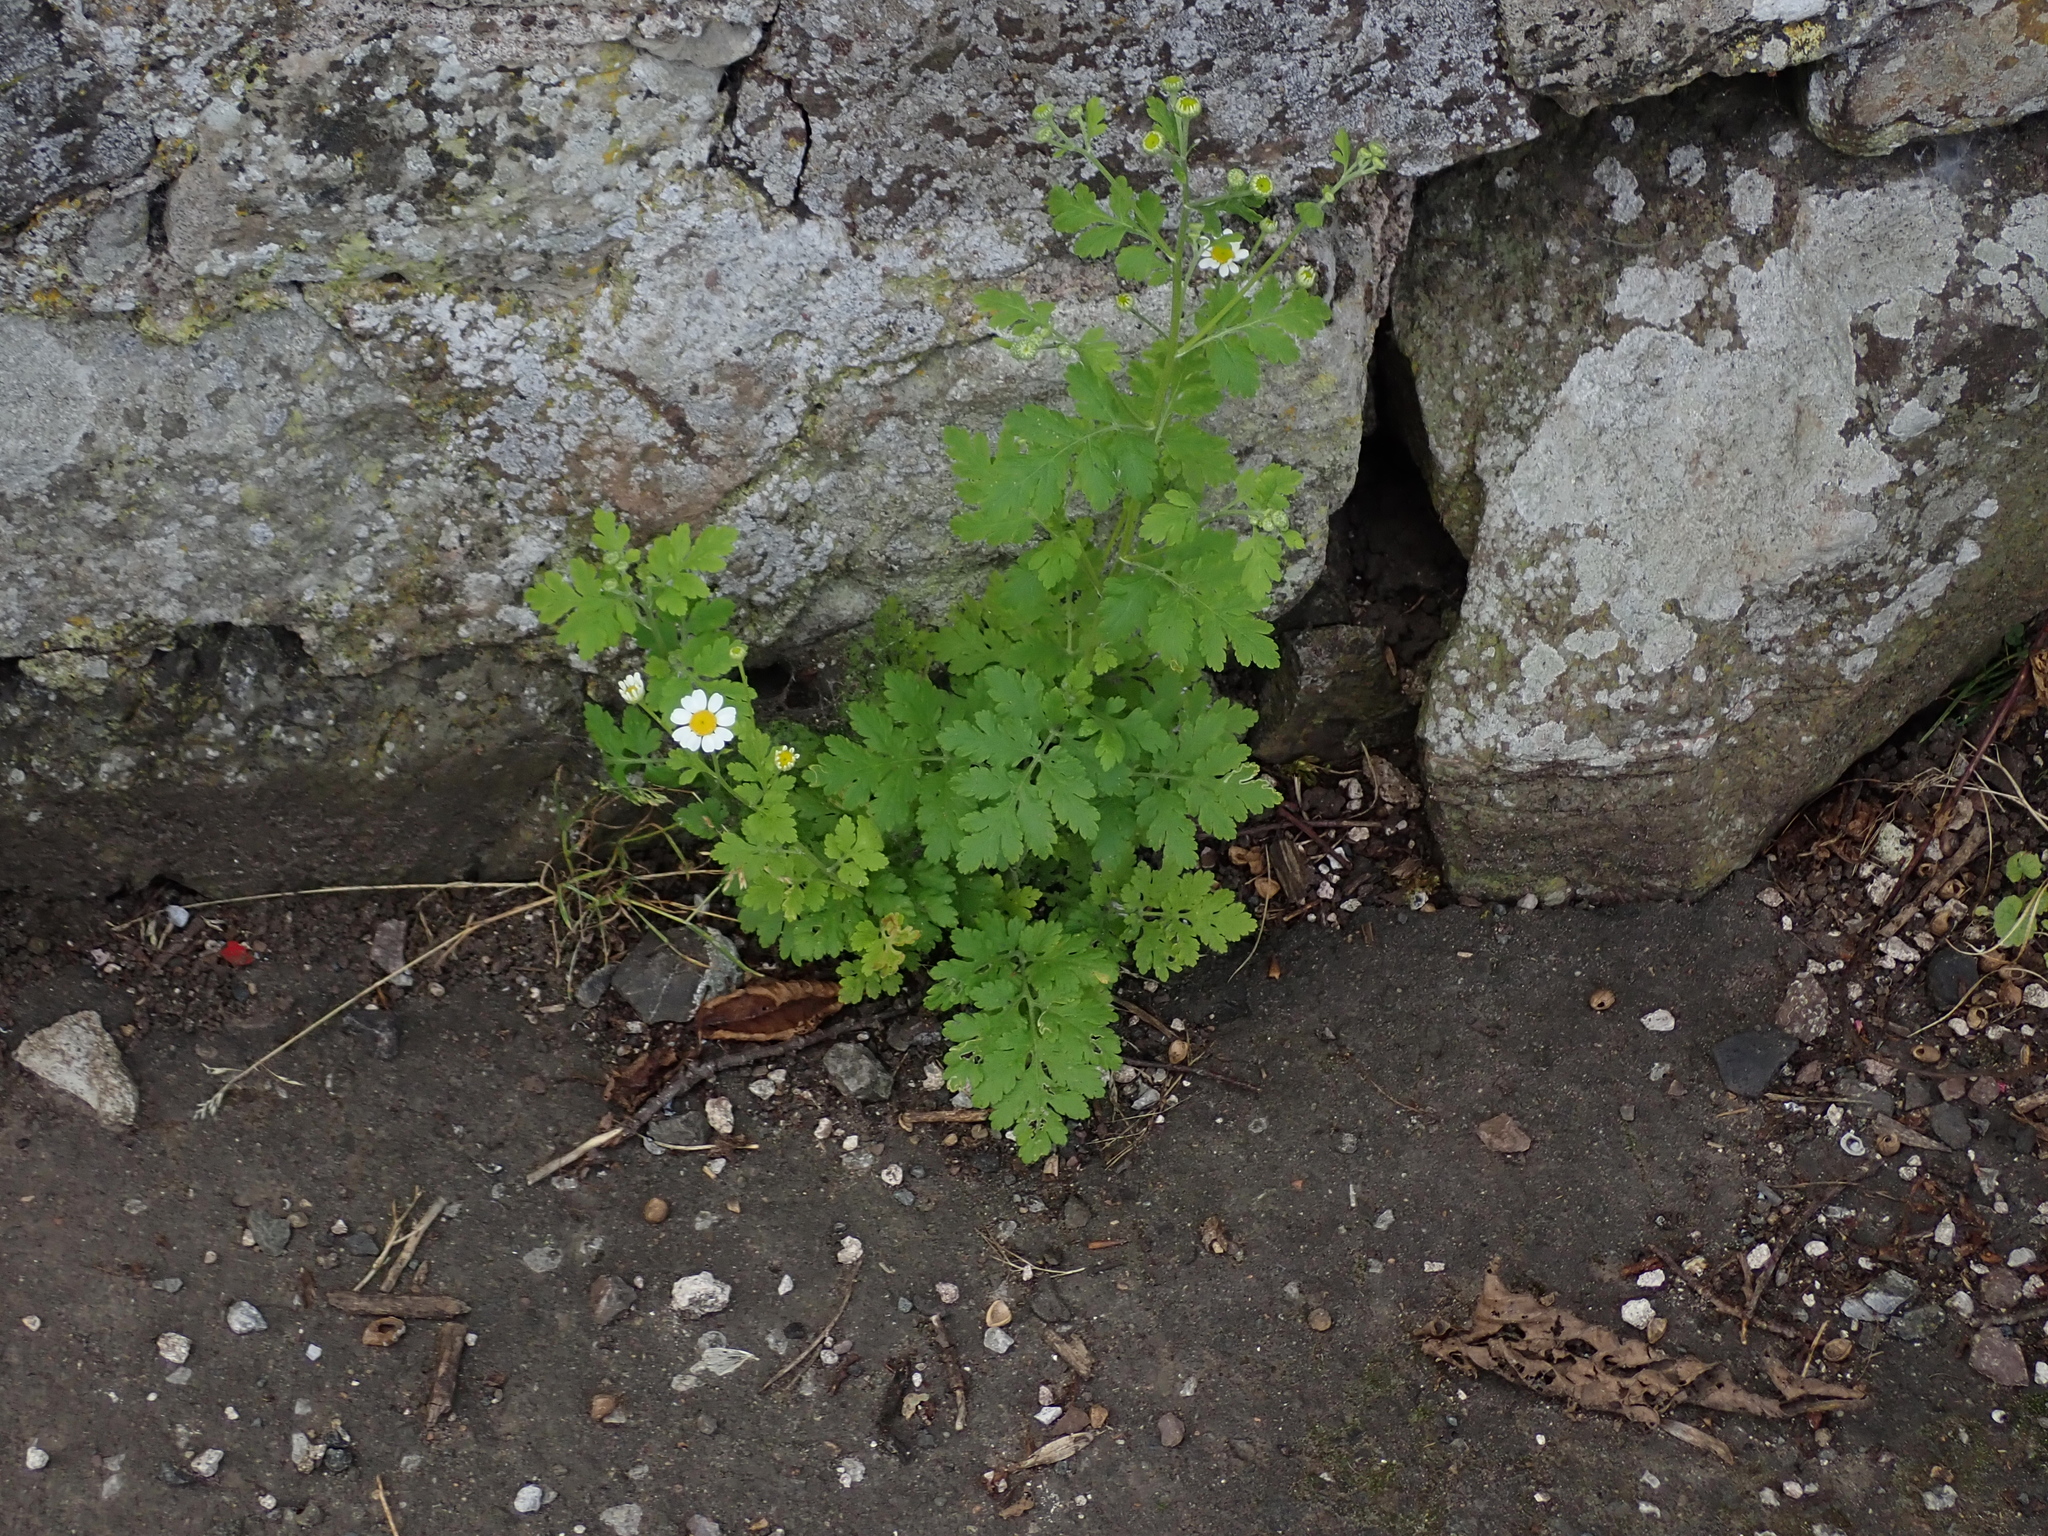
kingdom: Plantae
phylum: Tracheophyta
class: Magnoliopsida
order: Asterales
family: Asteraceae
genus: Tanacetum
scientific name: Tanacetum parthenium
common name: Feverfew
